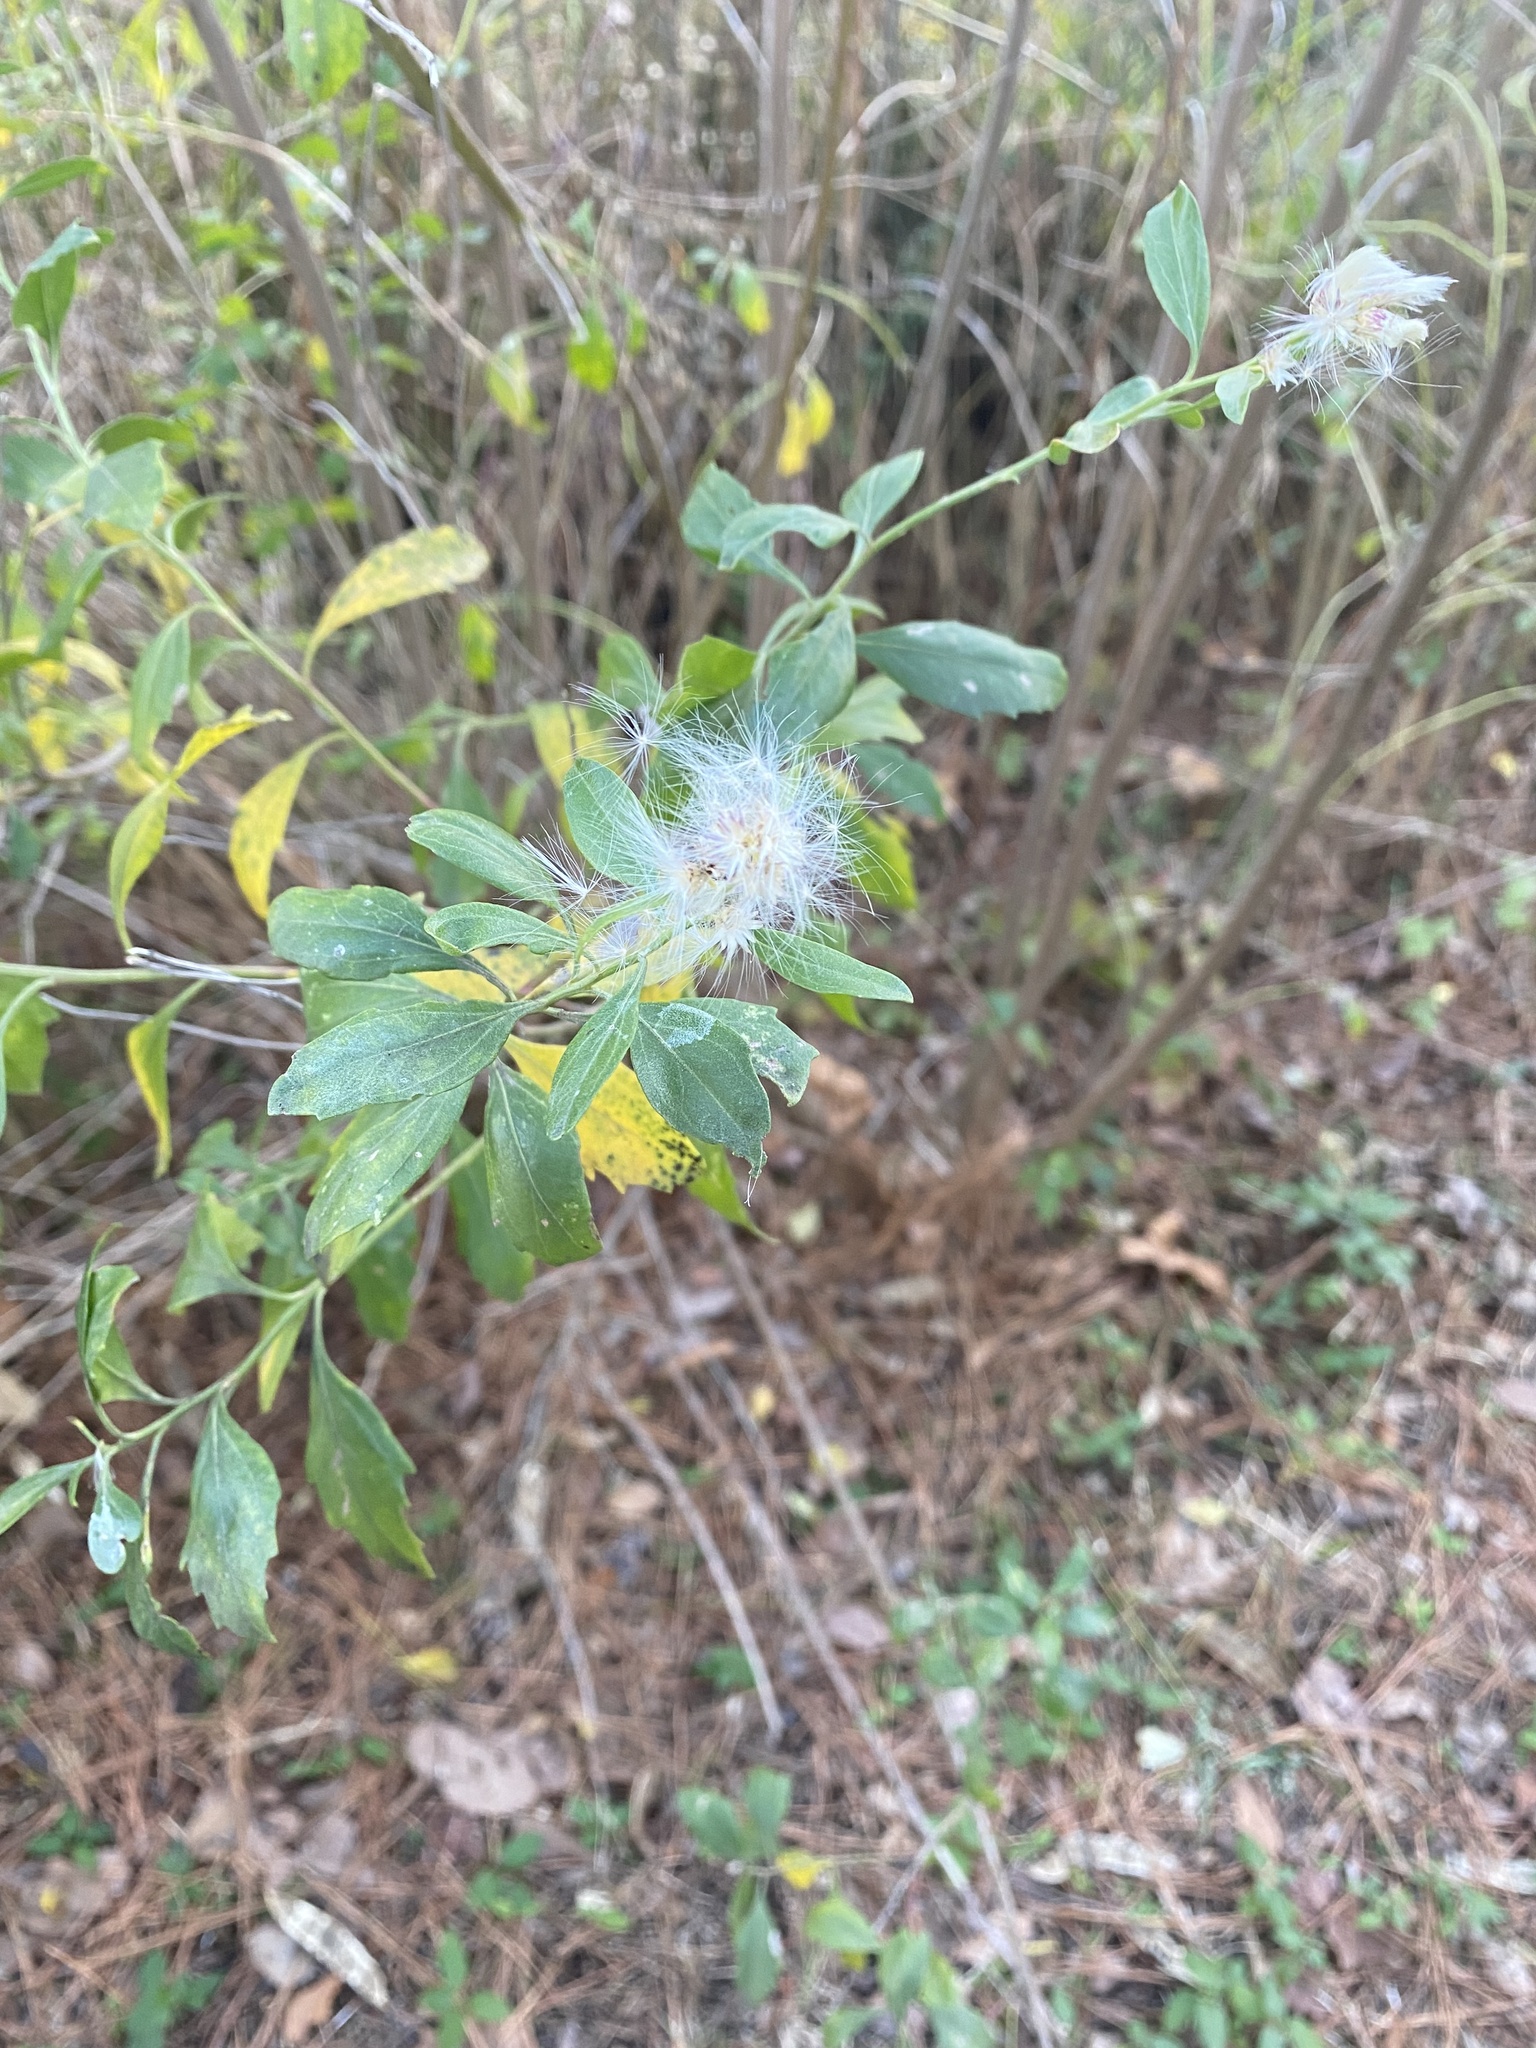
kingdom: Plantae
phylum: Tracheophyta
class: Magnoliopsida
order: Asterales
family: Asteraceae
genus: Baccharis
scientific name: Baccharis halimifolia
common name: Eastern baccharis
